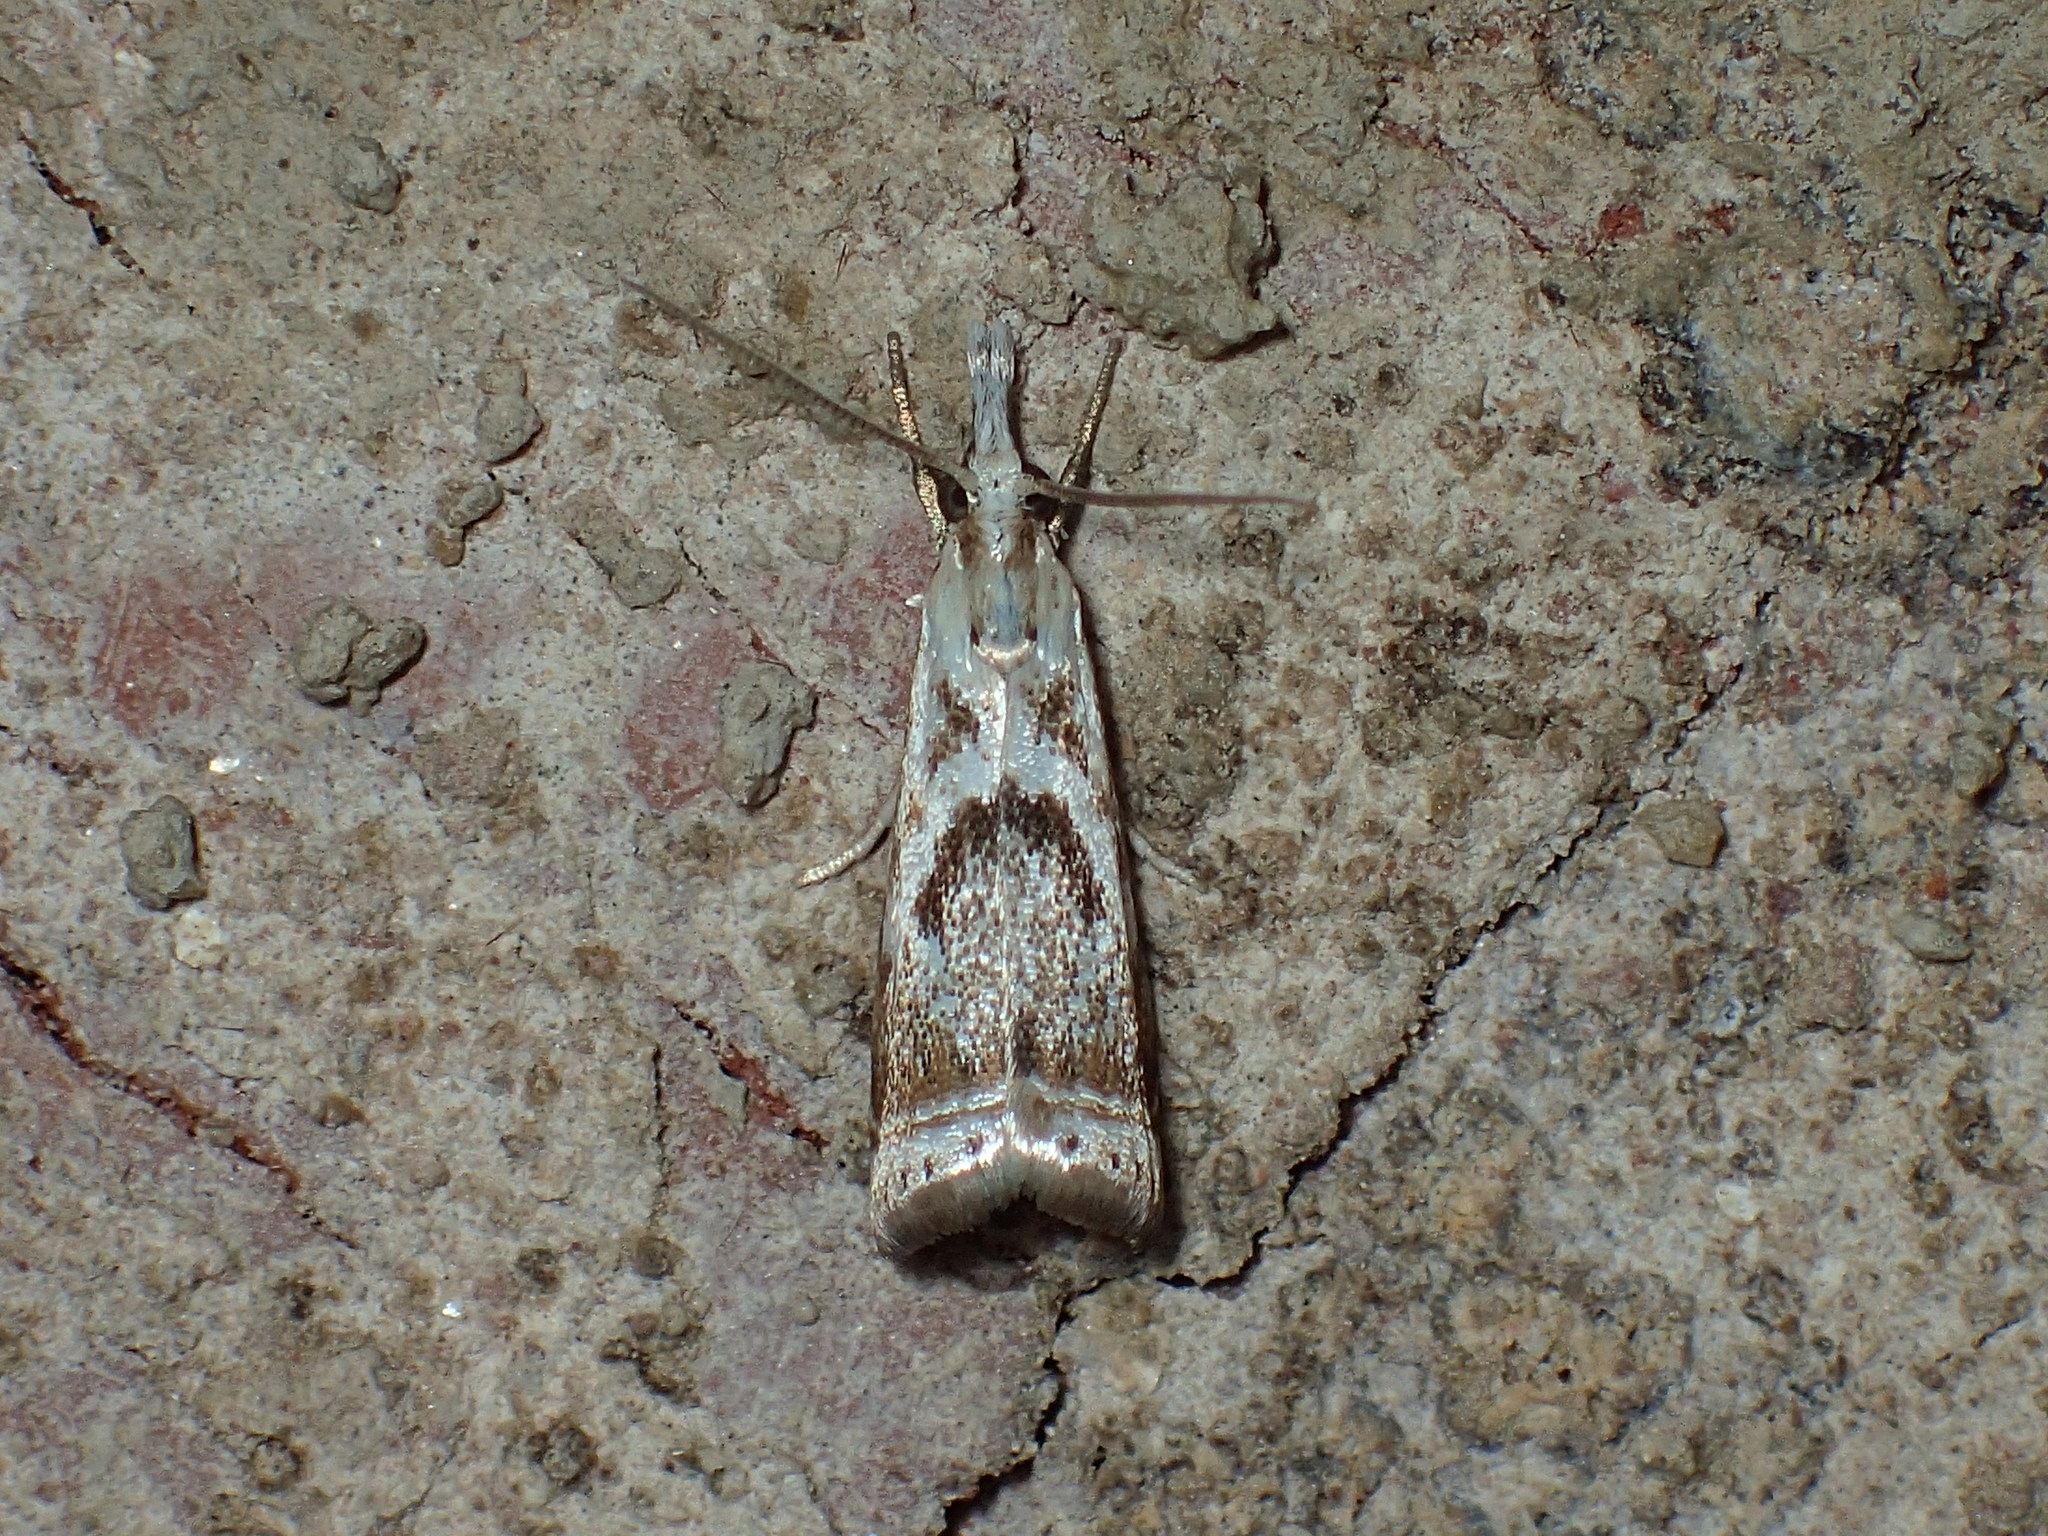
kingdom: Animalia
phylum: Arthropoda
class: Insecta
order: Lepidoptera
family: Crambidae
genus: Microcrambus
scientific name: Microcrambus elegans
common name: Elegant grass-veneer
